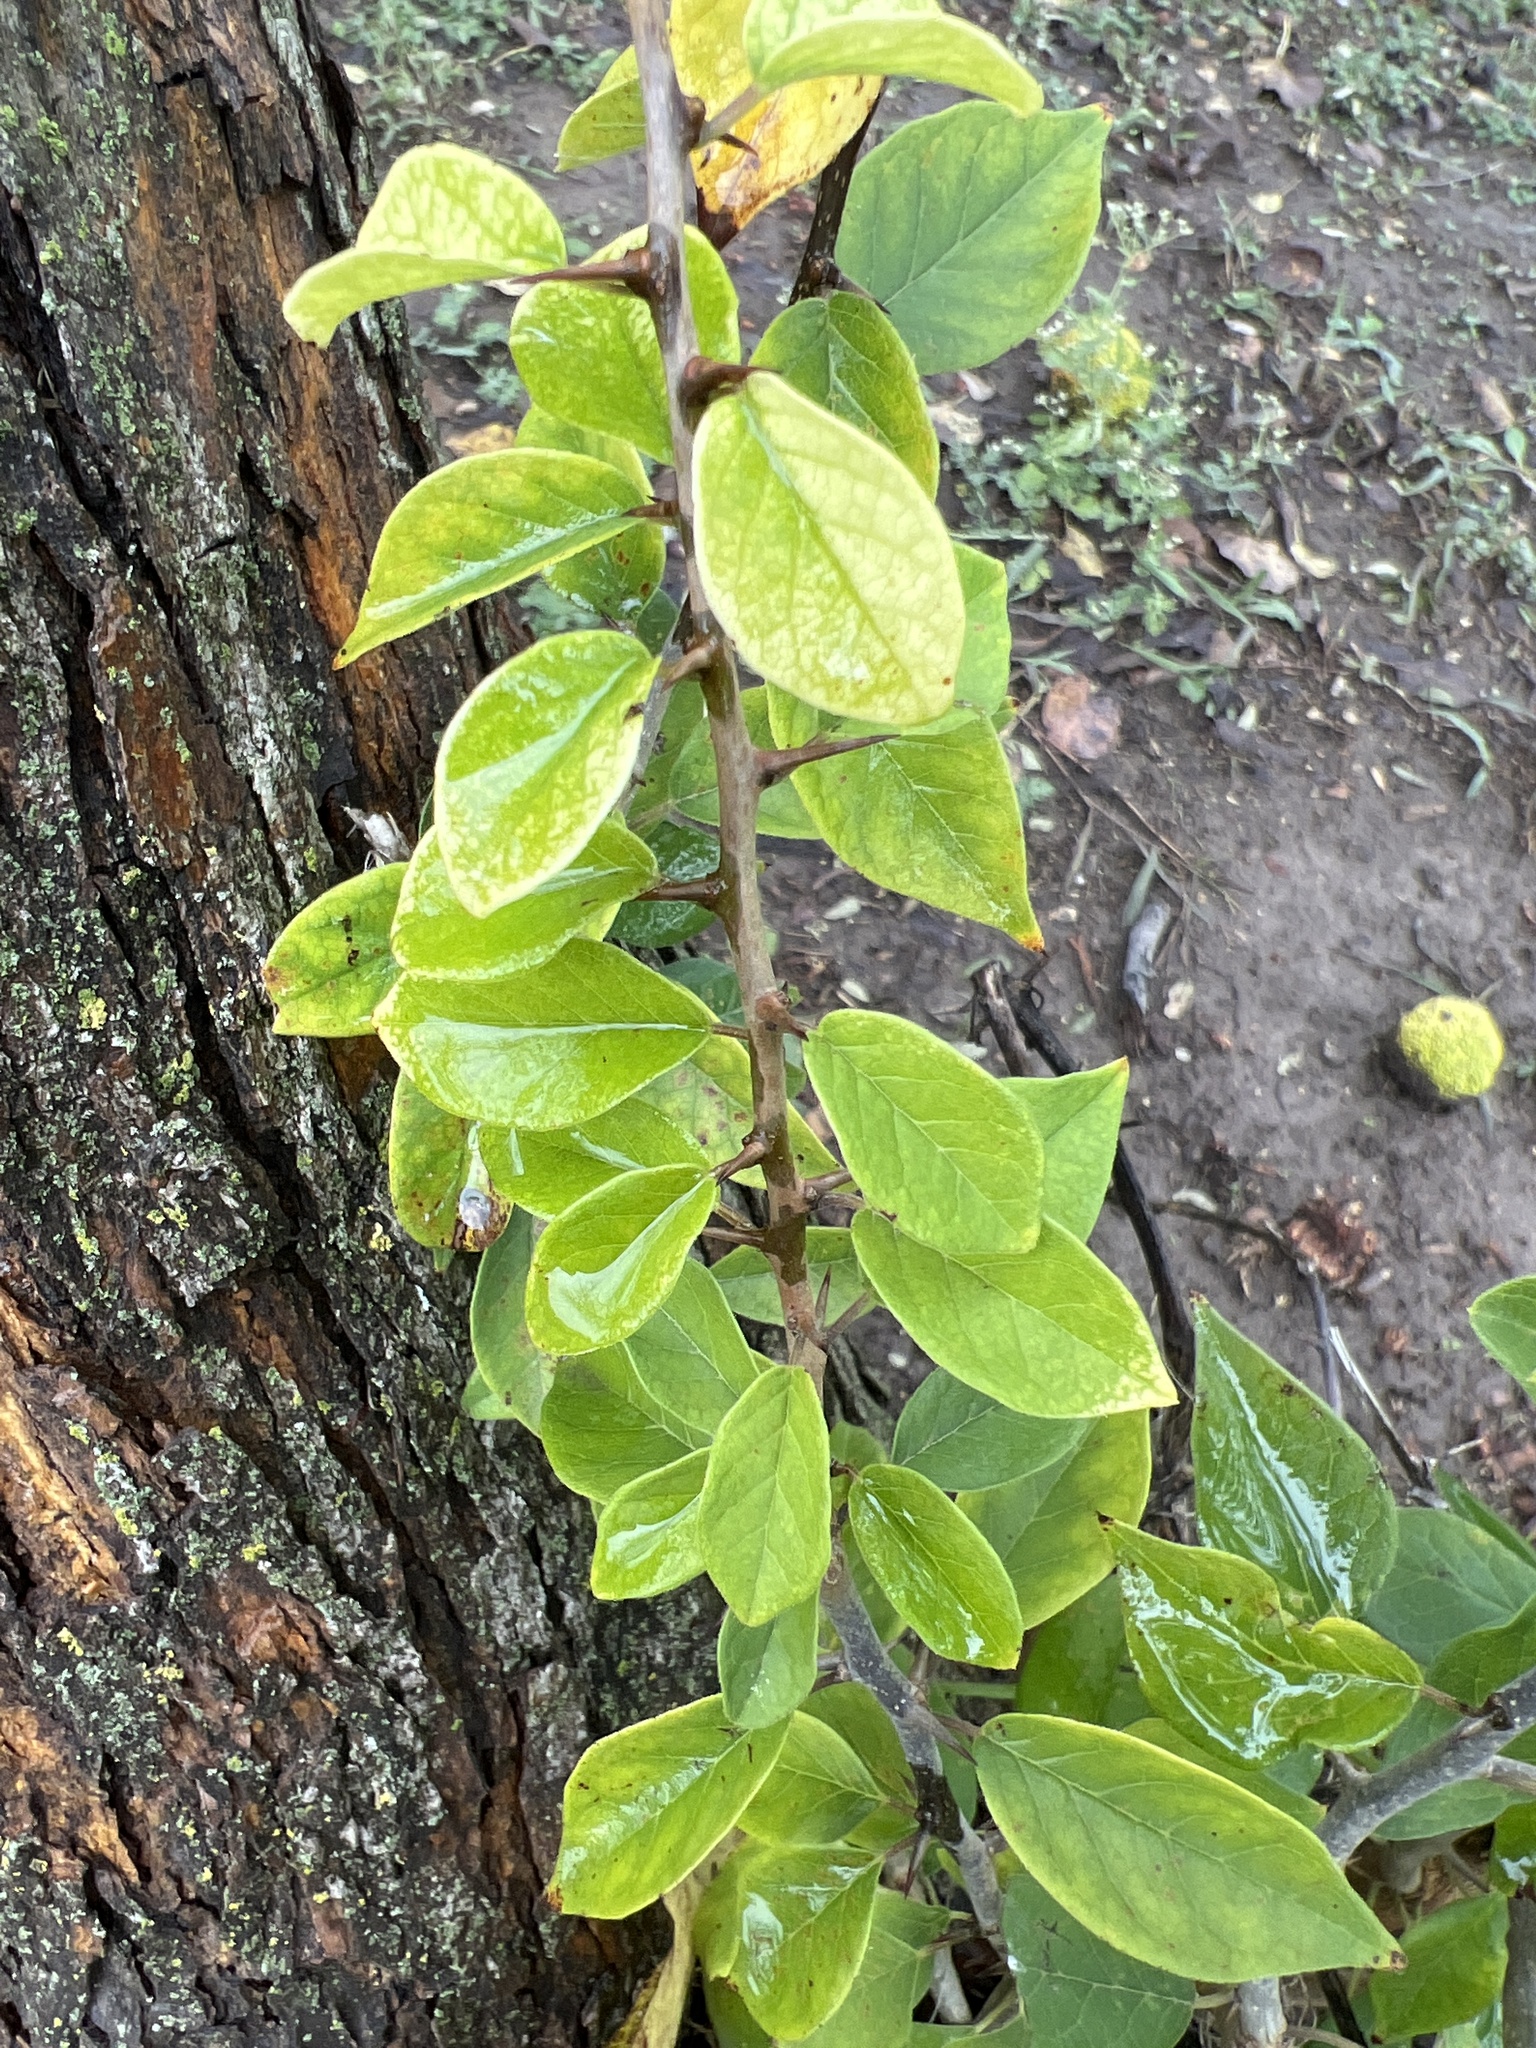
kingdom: Plantae
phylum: Tracheophyta
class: Magnoliopsida
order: Rosales
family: Moraceae
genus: Maclura
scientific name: Maclura pomifera
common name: Osage-orange
